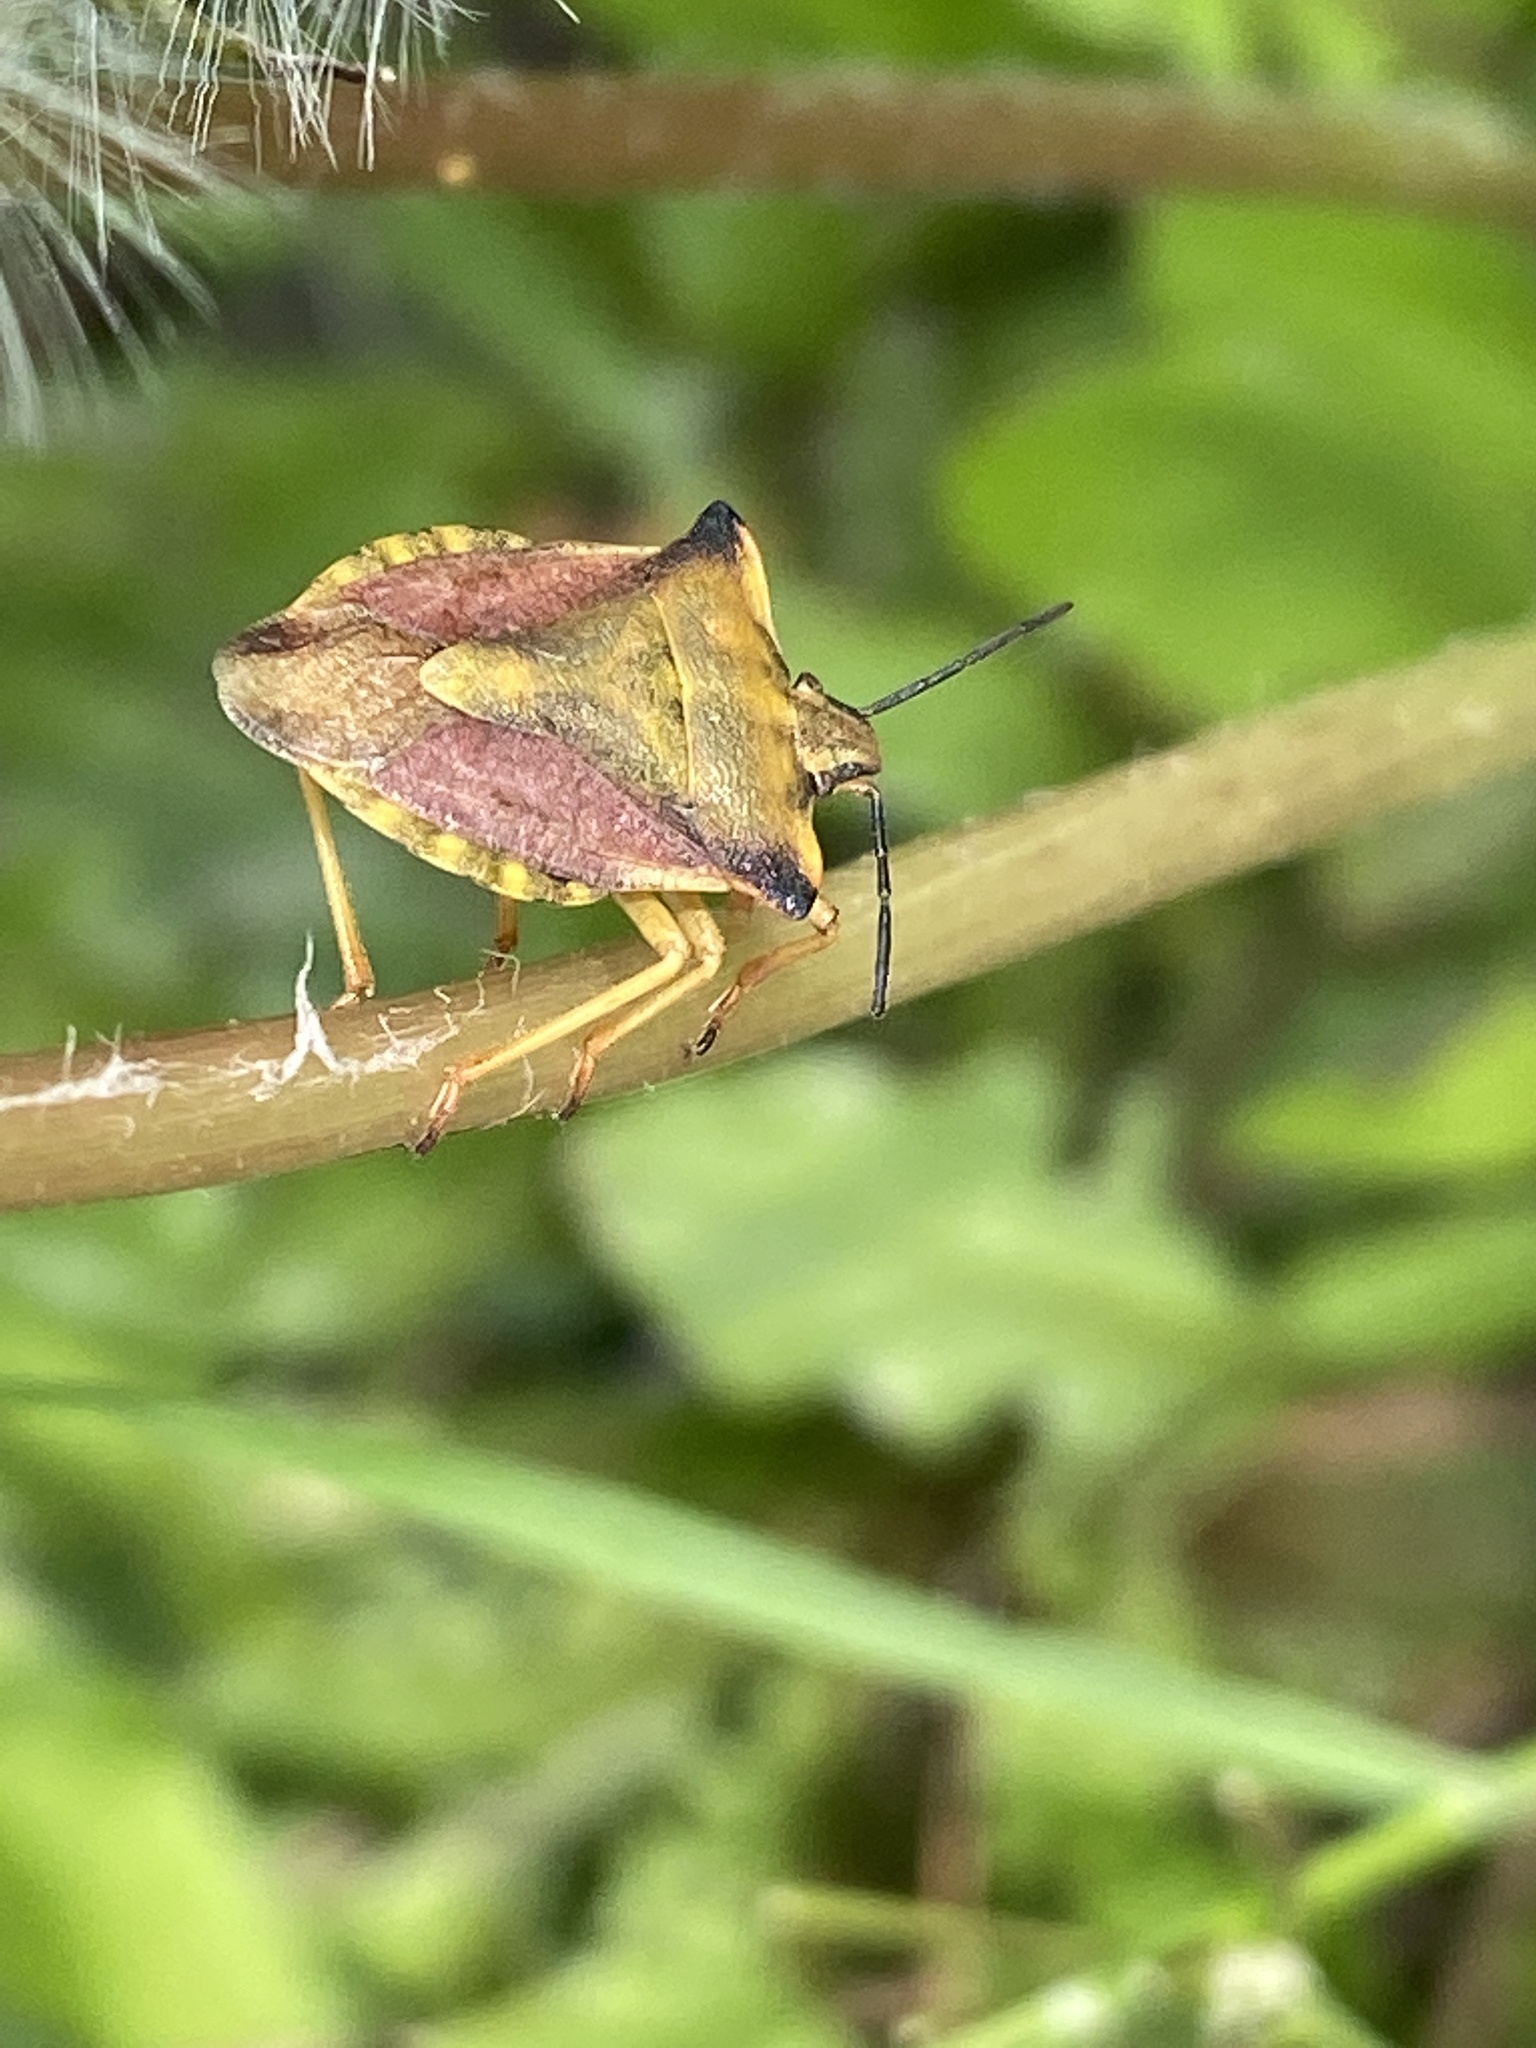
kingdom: Animalia
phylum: Arthropoda
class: Insecta
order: Hemiptera
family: Pentatomidae
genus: Carpocoris
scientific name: Carpocoris fuscispinus
